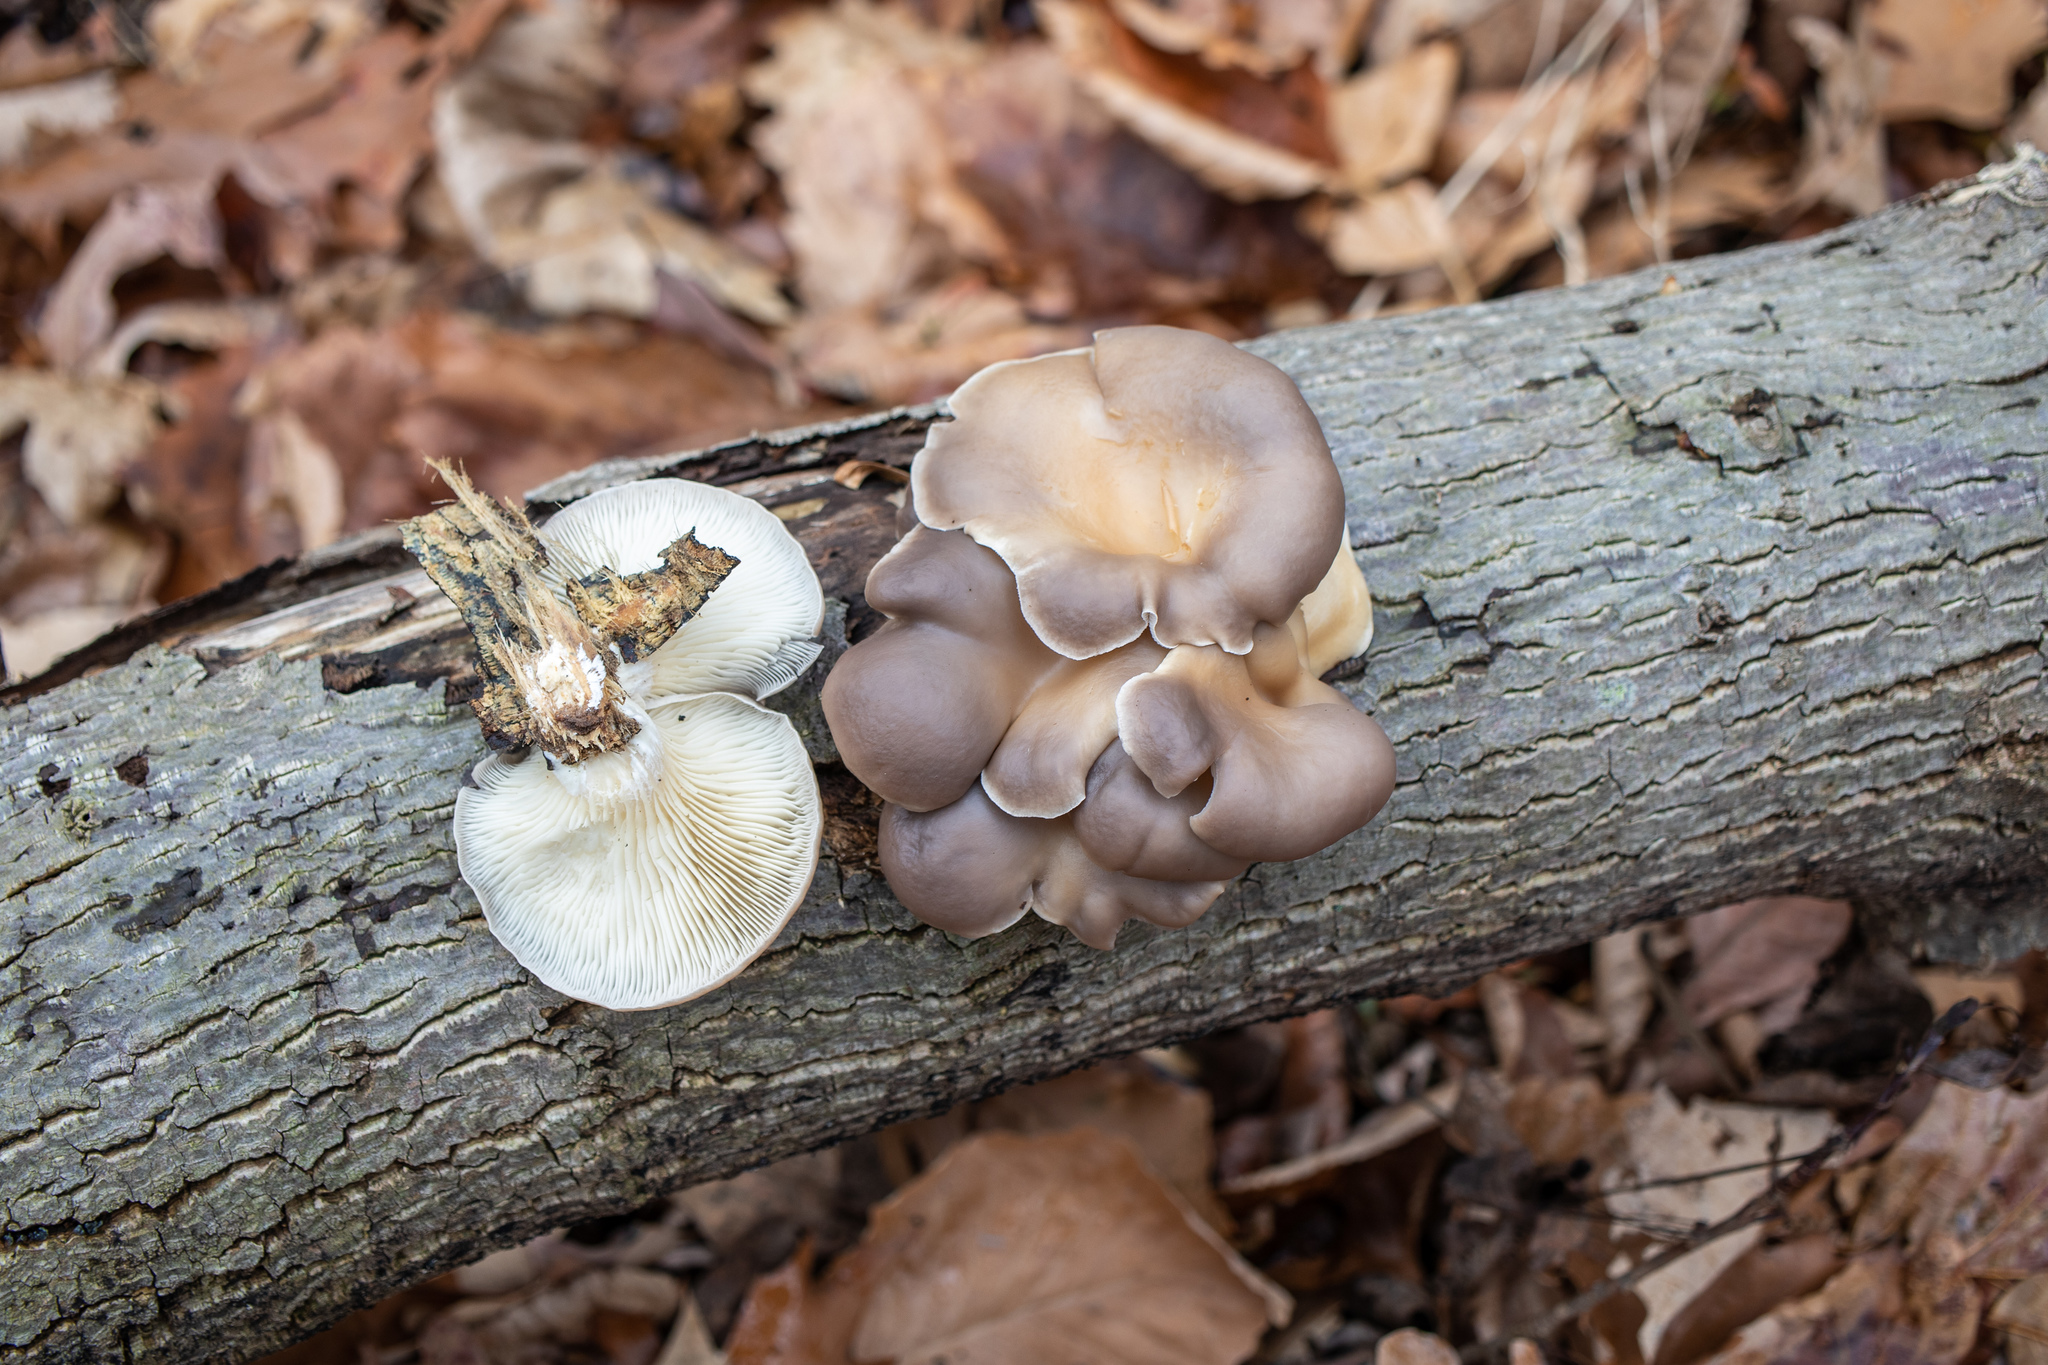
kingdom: Fungi
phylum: Basidiomycota
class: Agaricomycetes
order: Agaricales
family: Pleurotaceae
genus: Pleurotus
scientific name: Pleurotus ostreatus
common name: Oyster mushroom
